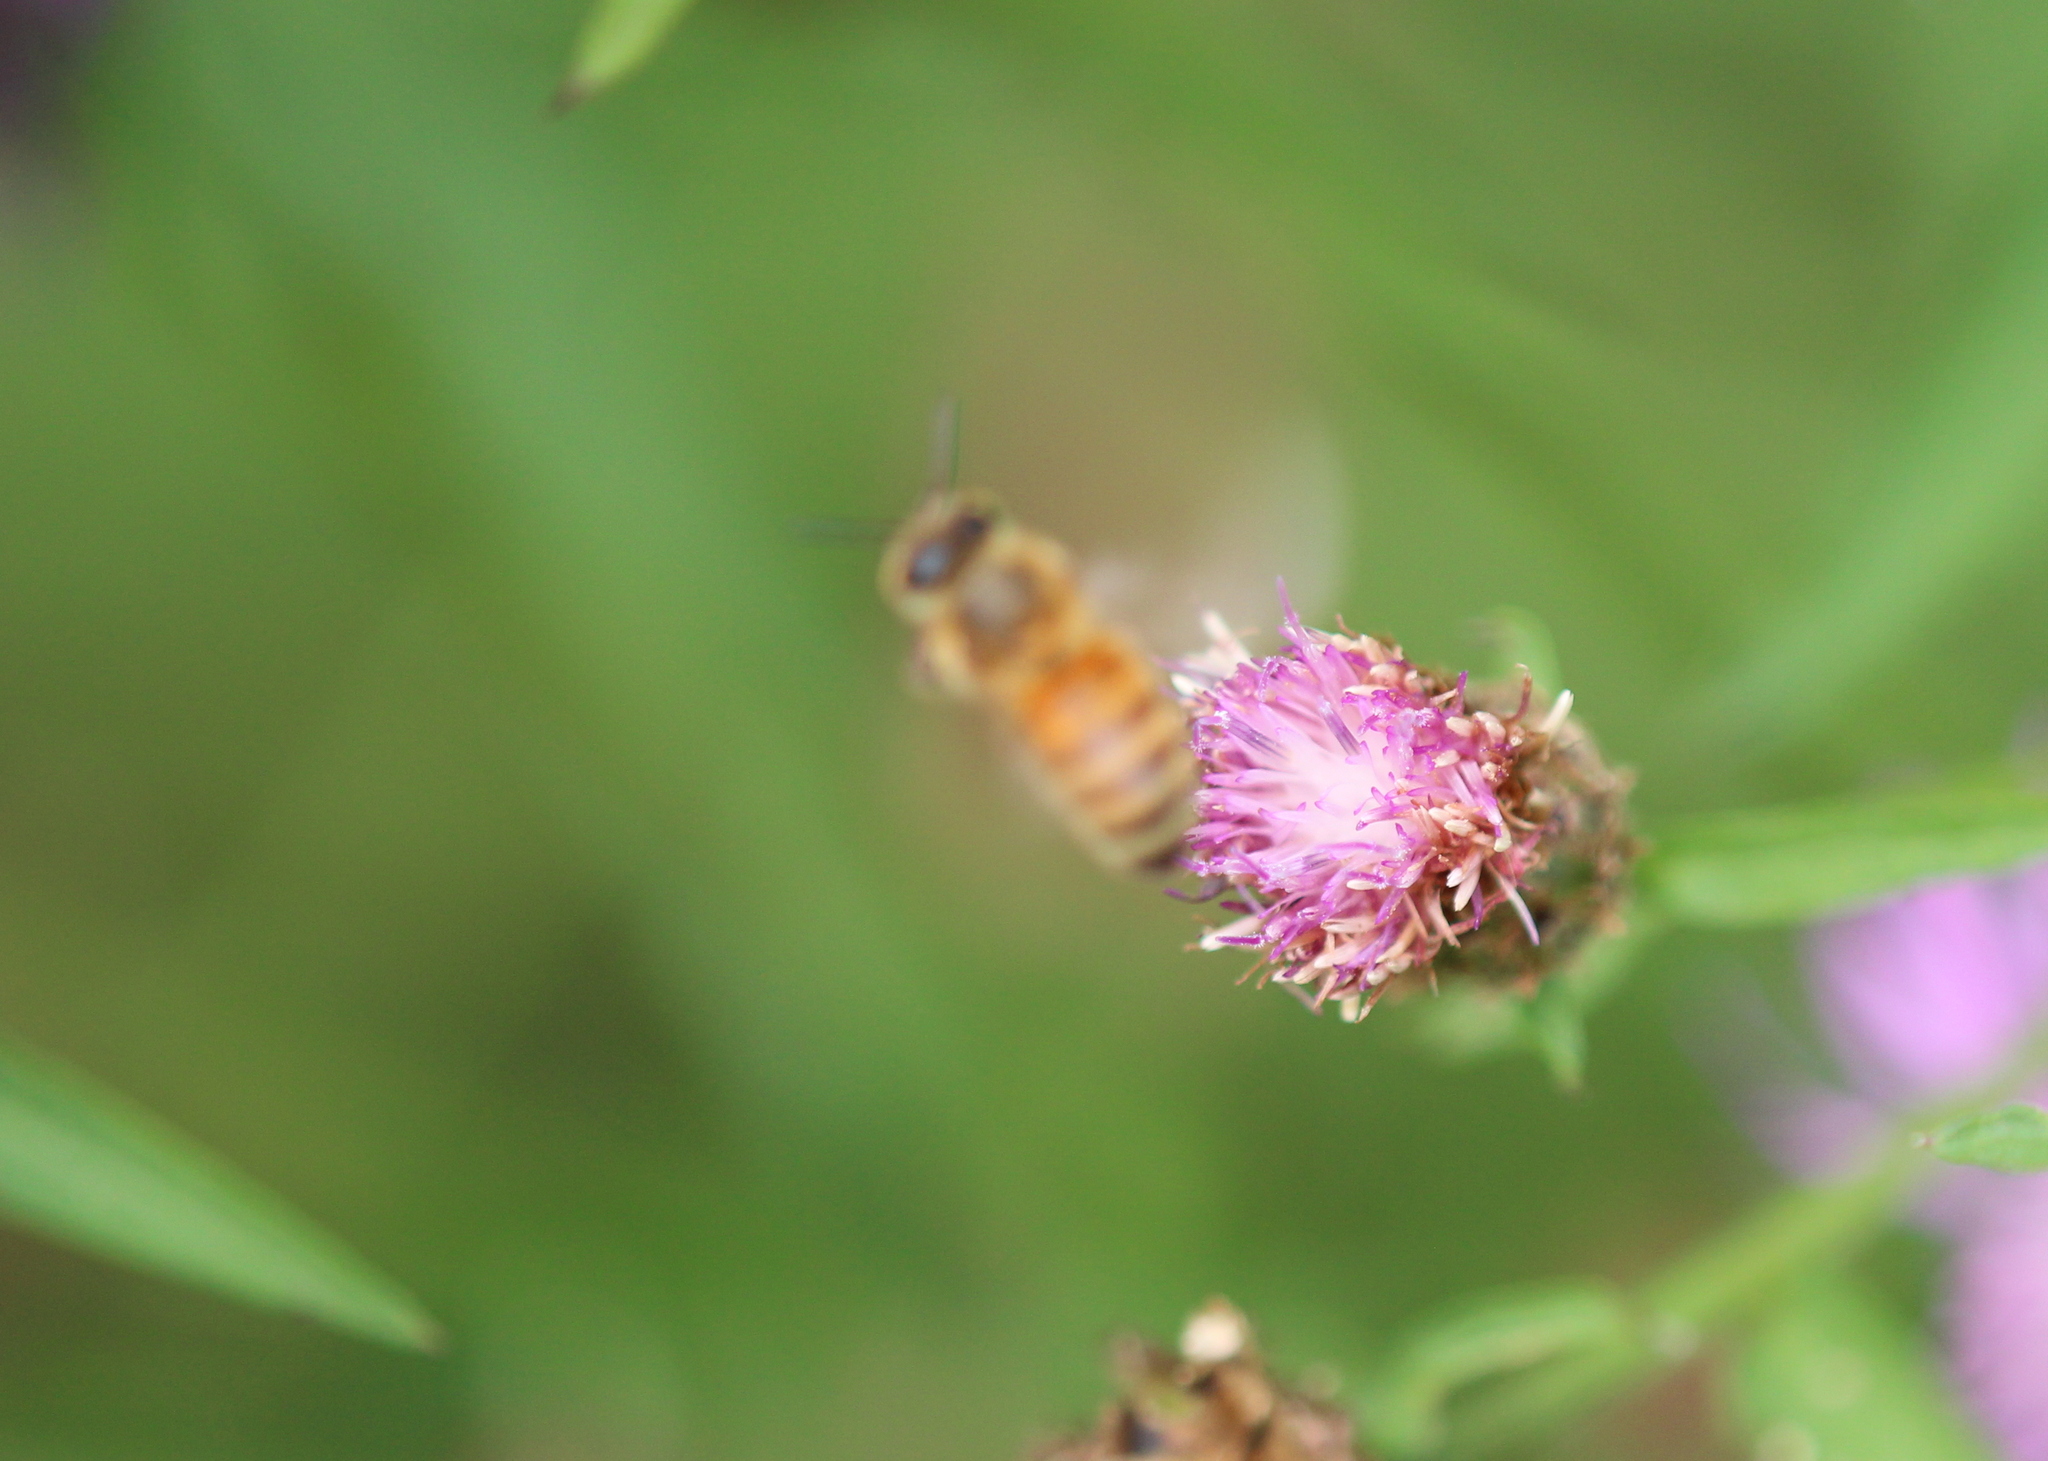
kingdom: Animalia
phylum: Arthropoda
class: Insecta
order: Hymenoptera
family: Apidae
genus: Apis
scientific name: Apis mellifera
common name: Honey bee
